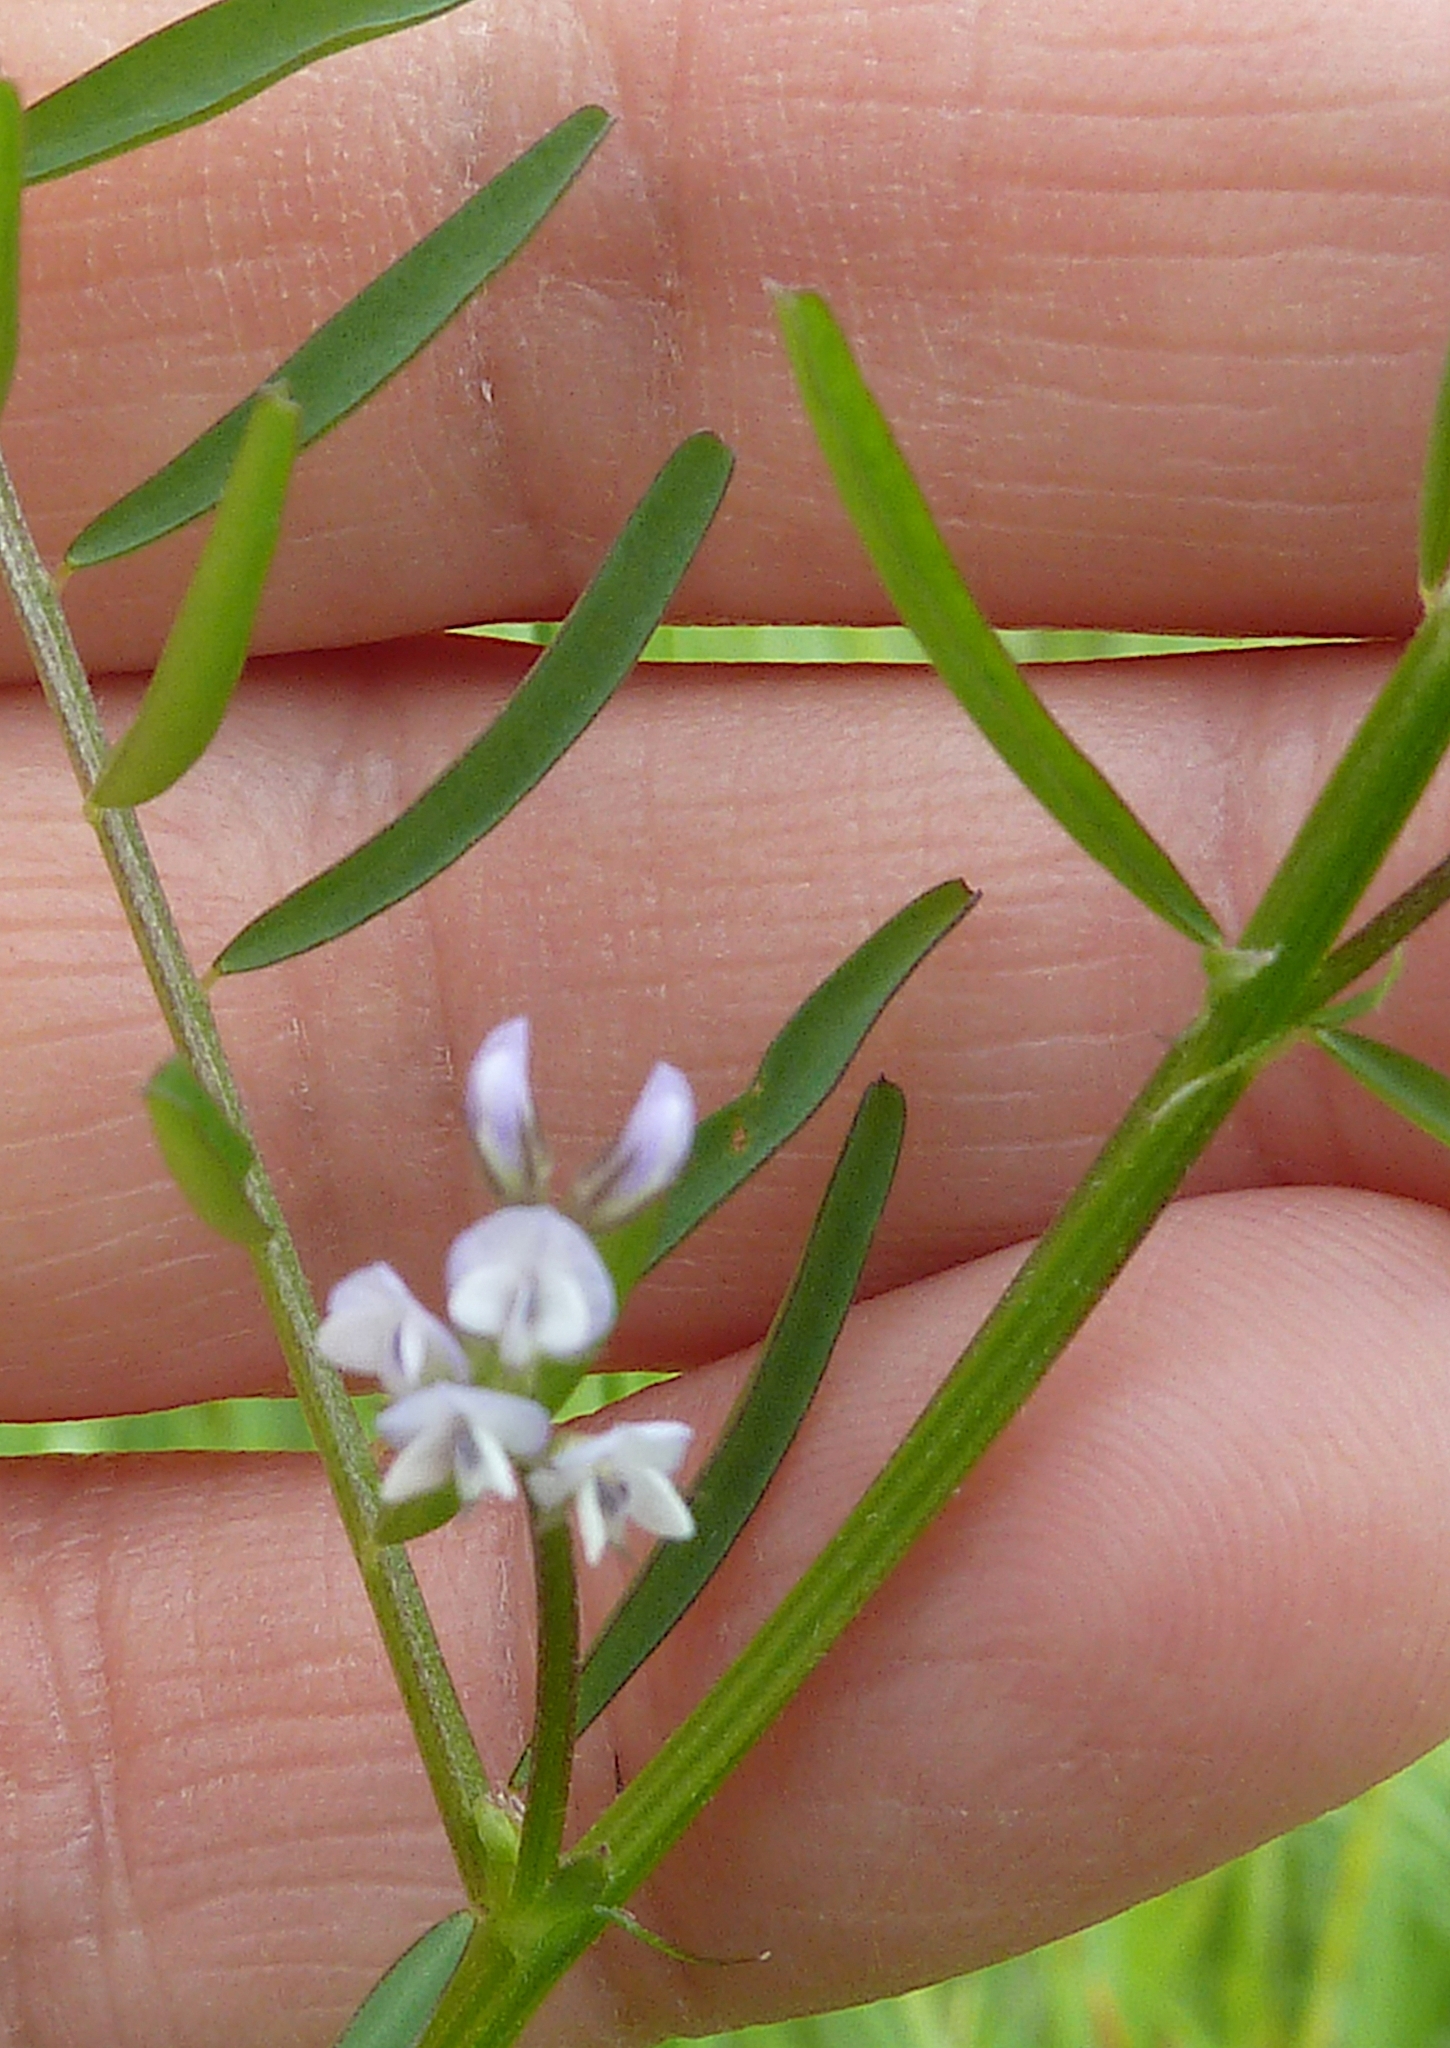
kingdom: Plantae
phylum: Tracheophyta
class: Magnoliopsida
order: Fabales
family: Fabaceae
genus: Vicia
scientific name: Vicia hirsuta
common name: Tiny vetch
